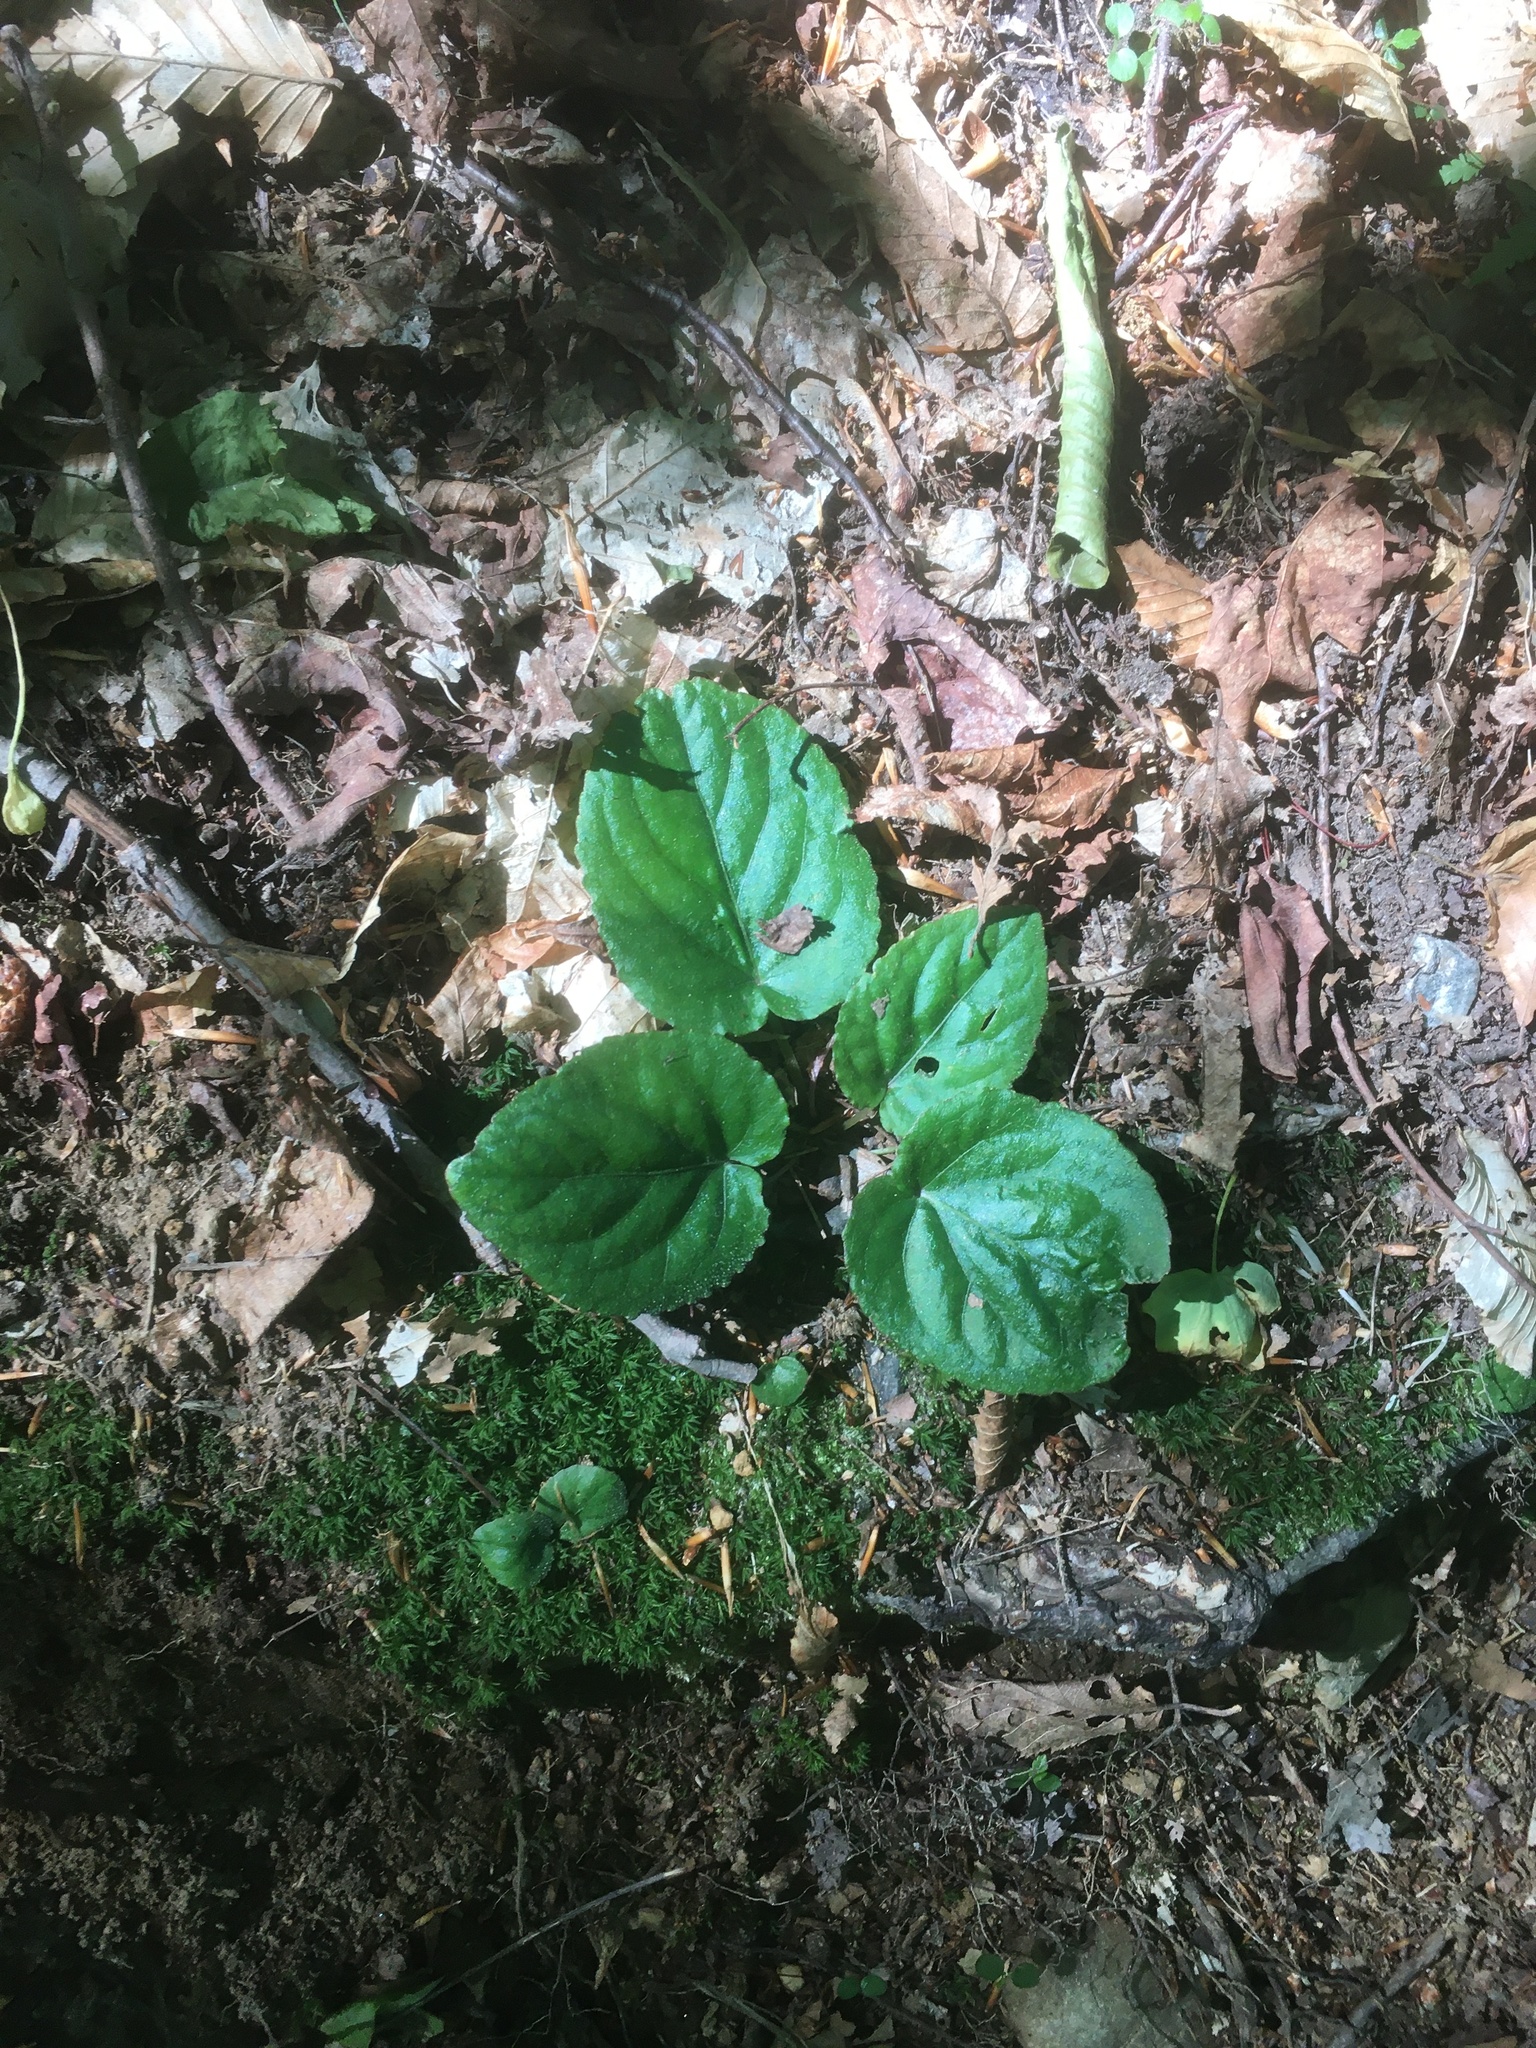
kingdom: Plantae
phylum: Tracheophyta
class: Magnoliopsida
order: Malpighiales
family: Violaceae
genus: Viola
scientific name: Viola rotundifolia
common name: Early yellow violet
